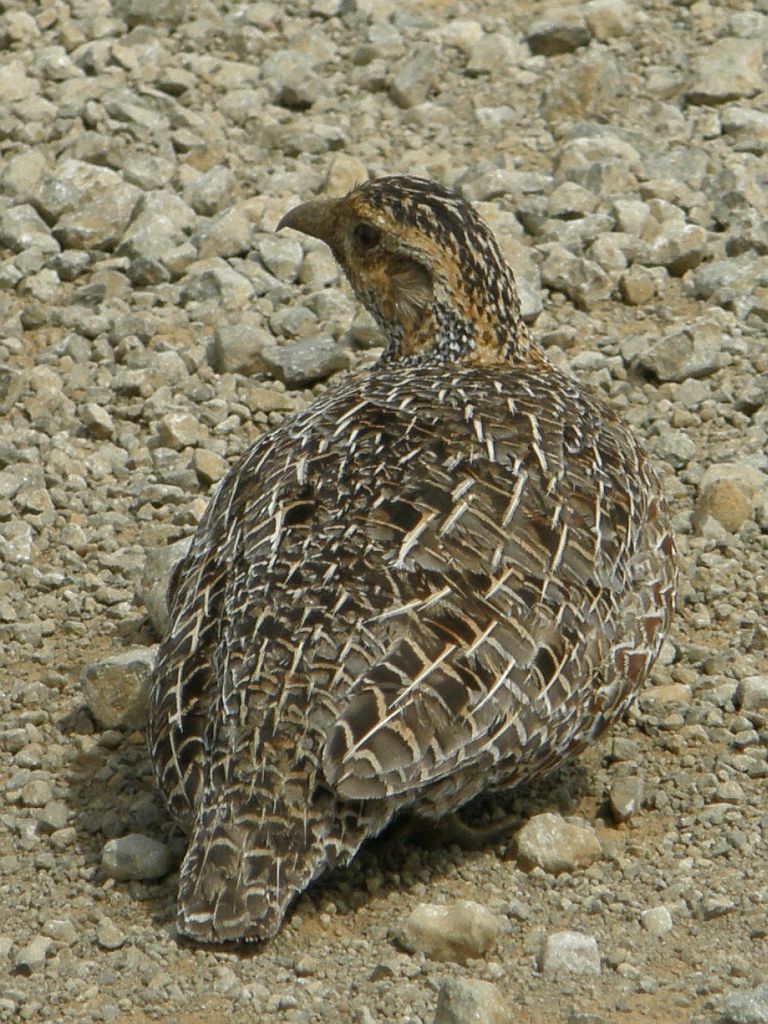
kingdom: Animalia
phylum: Chordata
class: Aves
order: Galliformes
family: Phasianidae
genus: Scleroptila
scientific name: Scleroptila afra
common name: Grey-winged francolin
